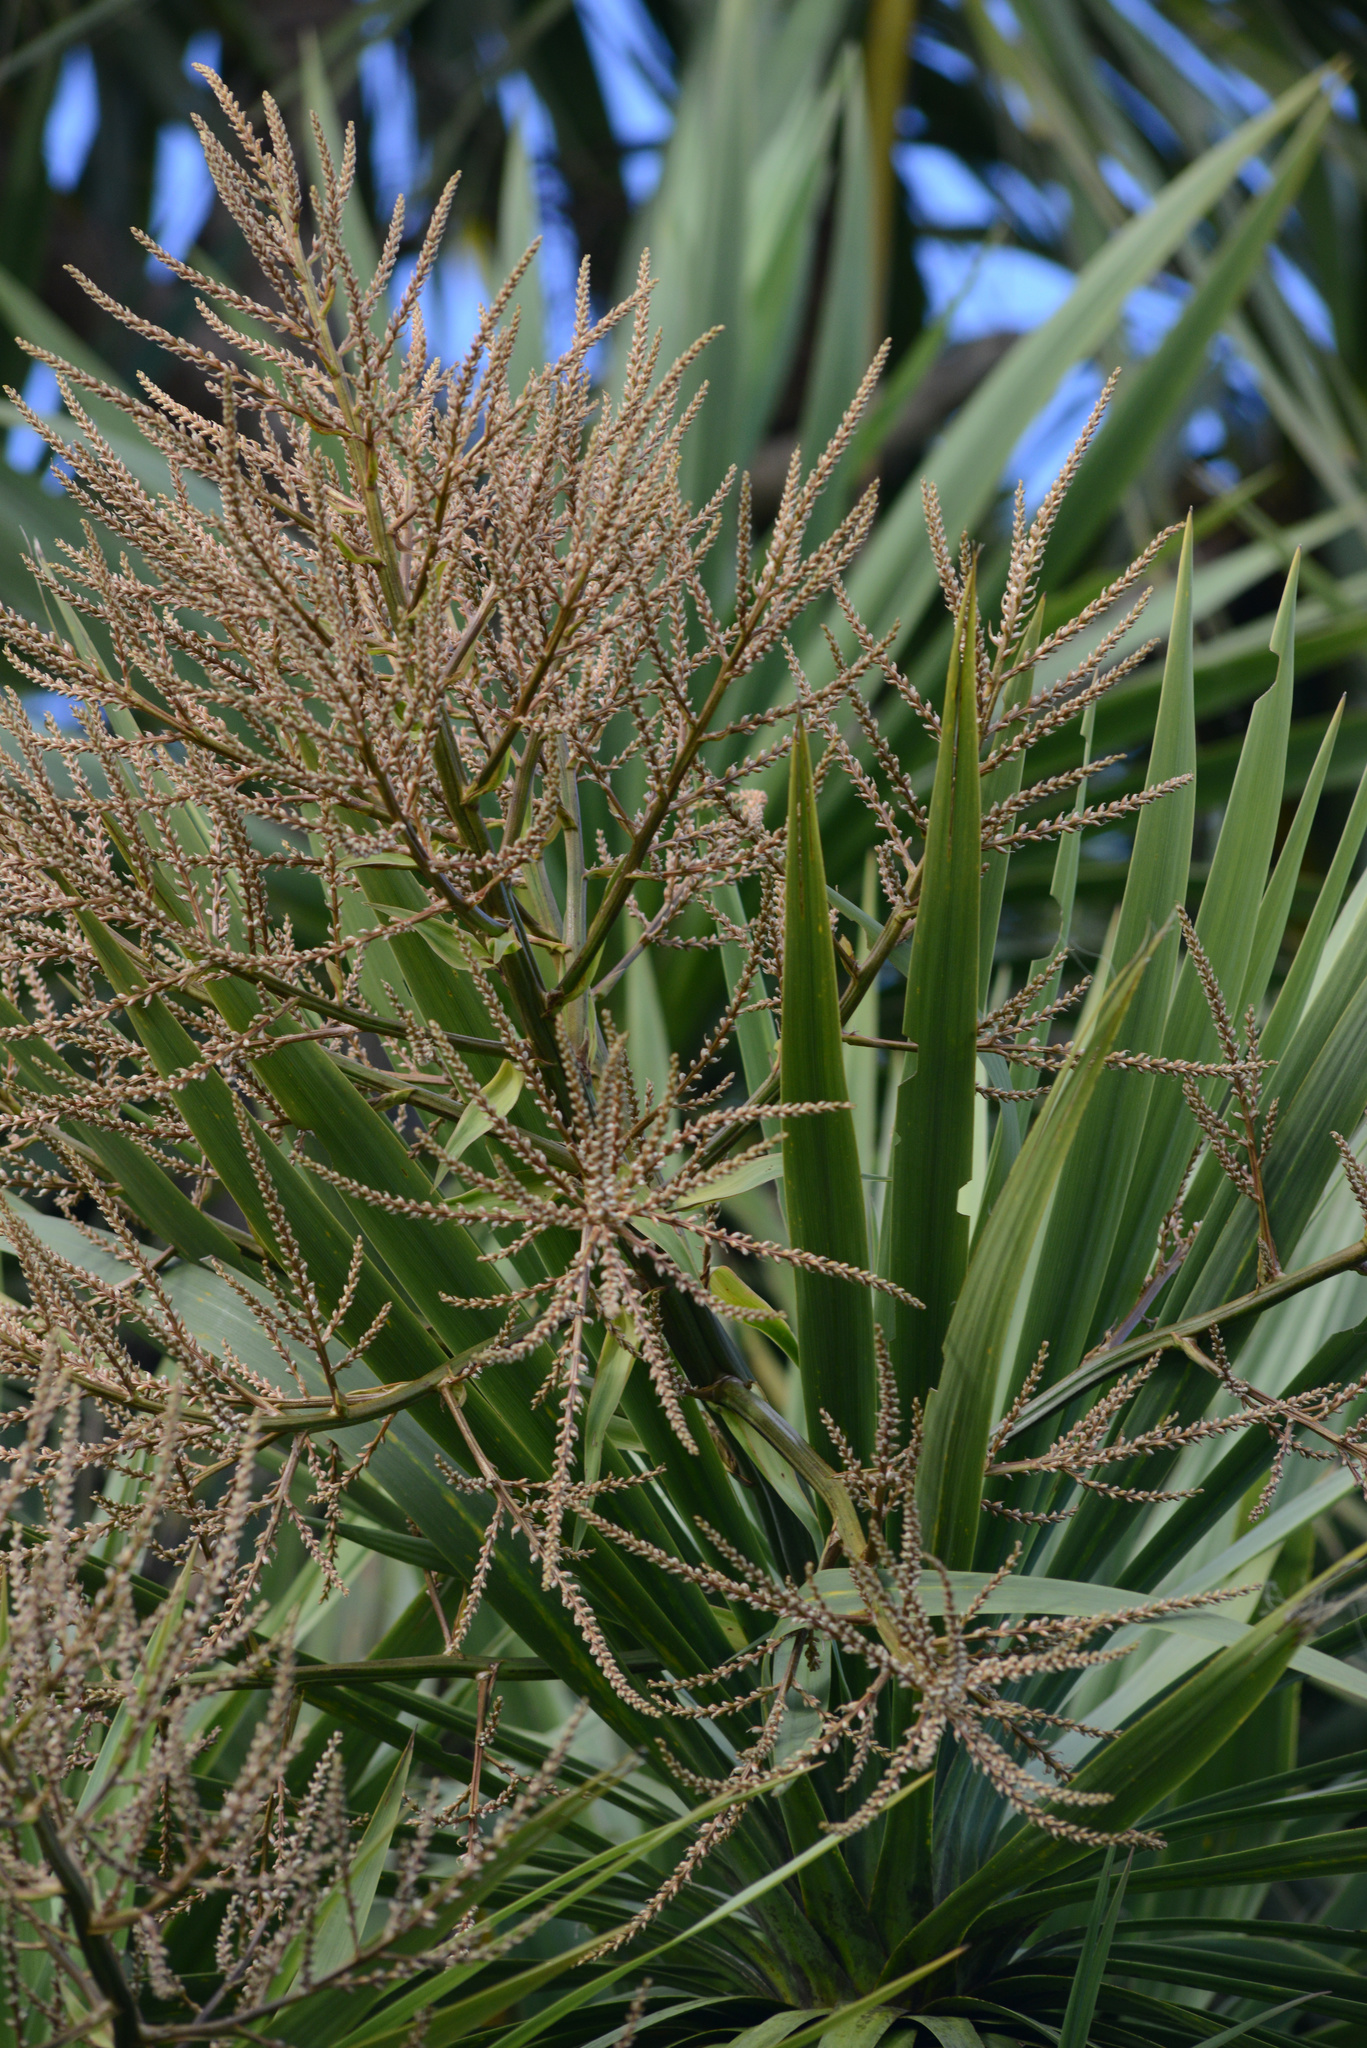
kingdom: Plantae
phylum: Tracheophyta
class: Liliopsida
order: Asparagales
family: Asparagaceae
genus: Cordyline
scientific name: Cordyline australis
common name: Cabbage-palm
